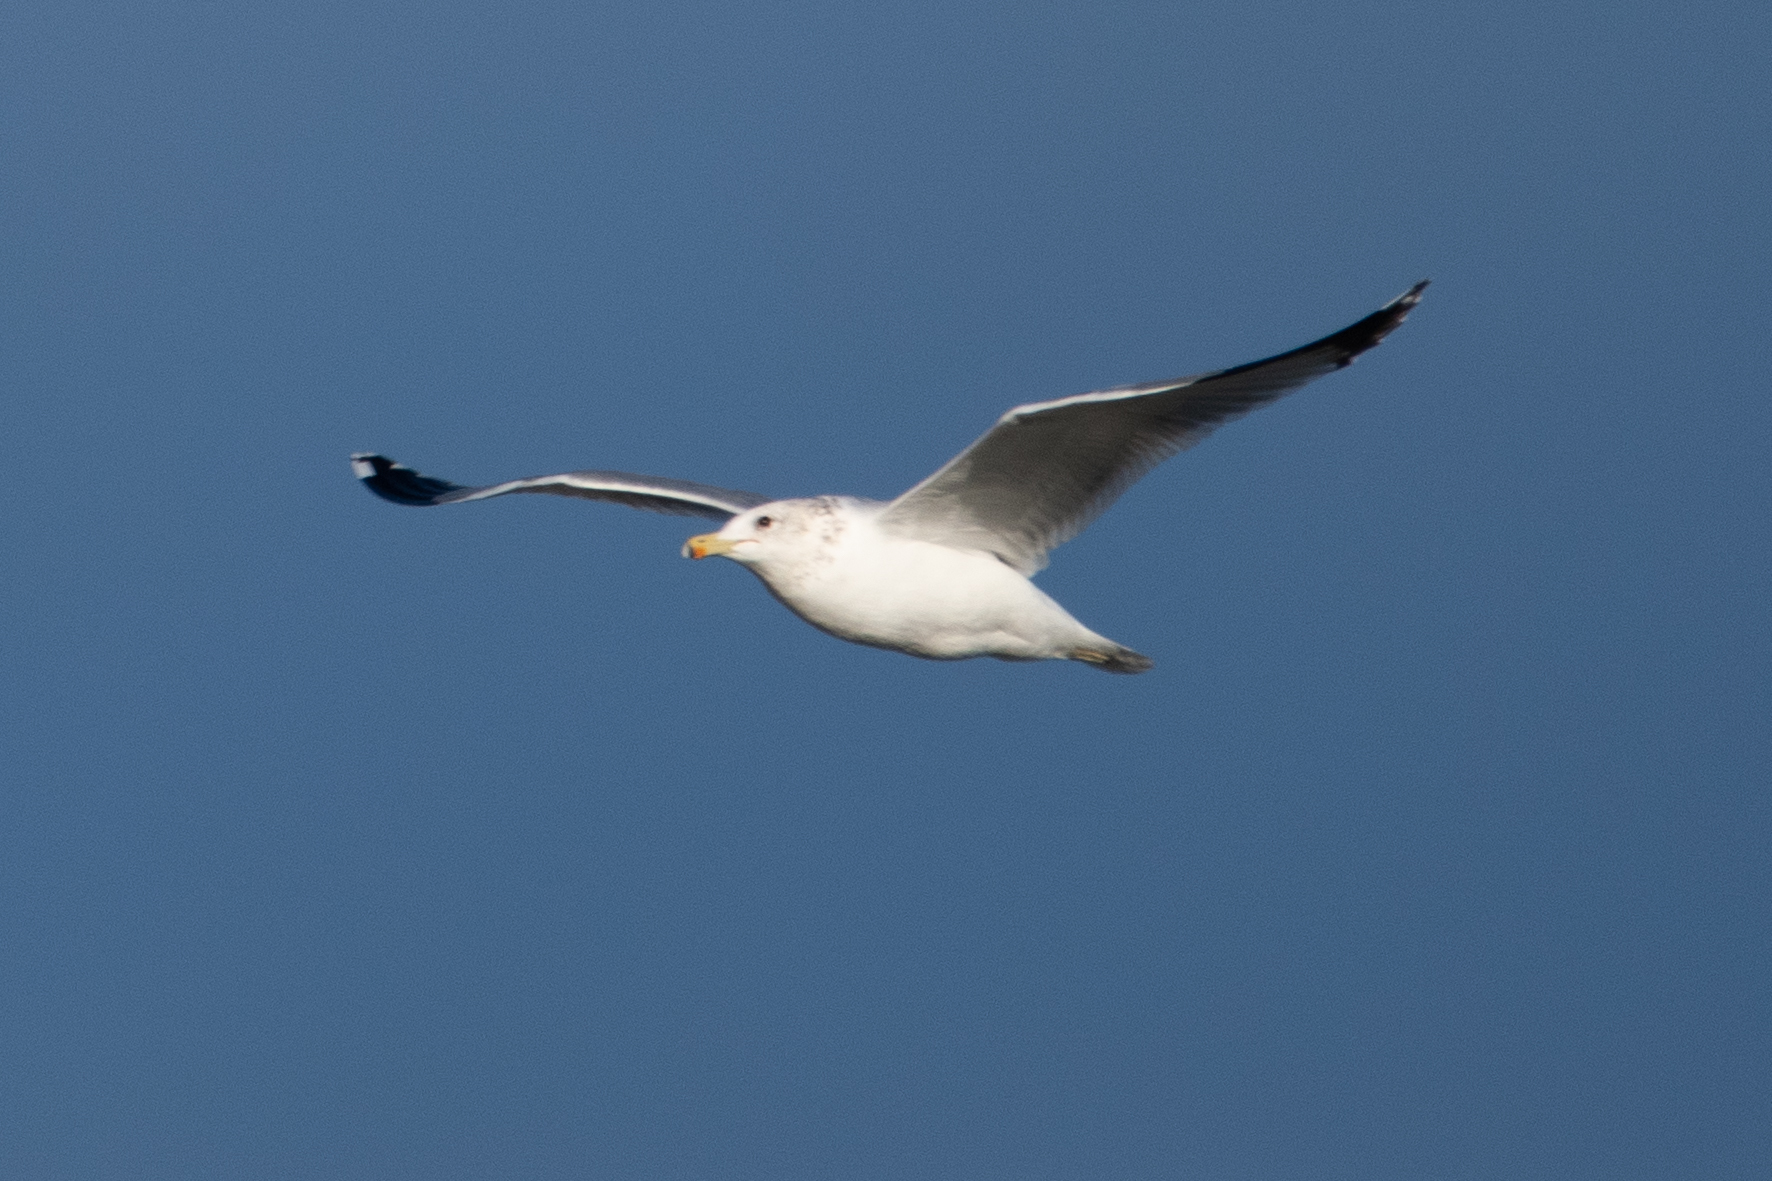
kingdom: Animalia
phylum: Chordata
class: Aves
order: Charadriiformes
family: Laridae
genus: Larus
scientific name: Larus californicus
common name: California gull
